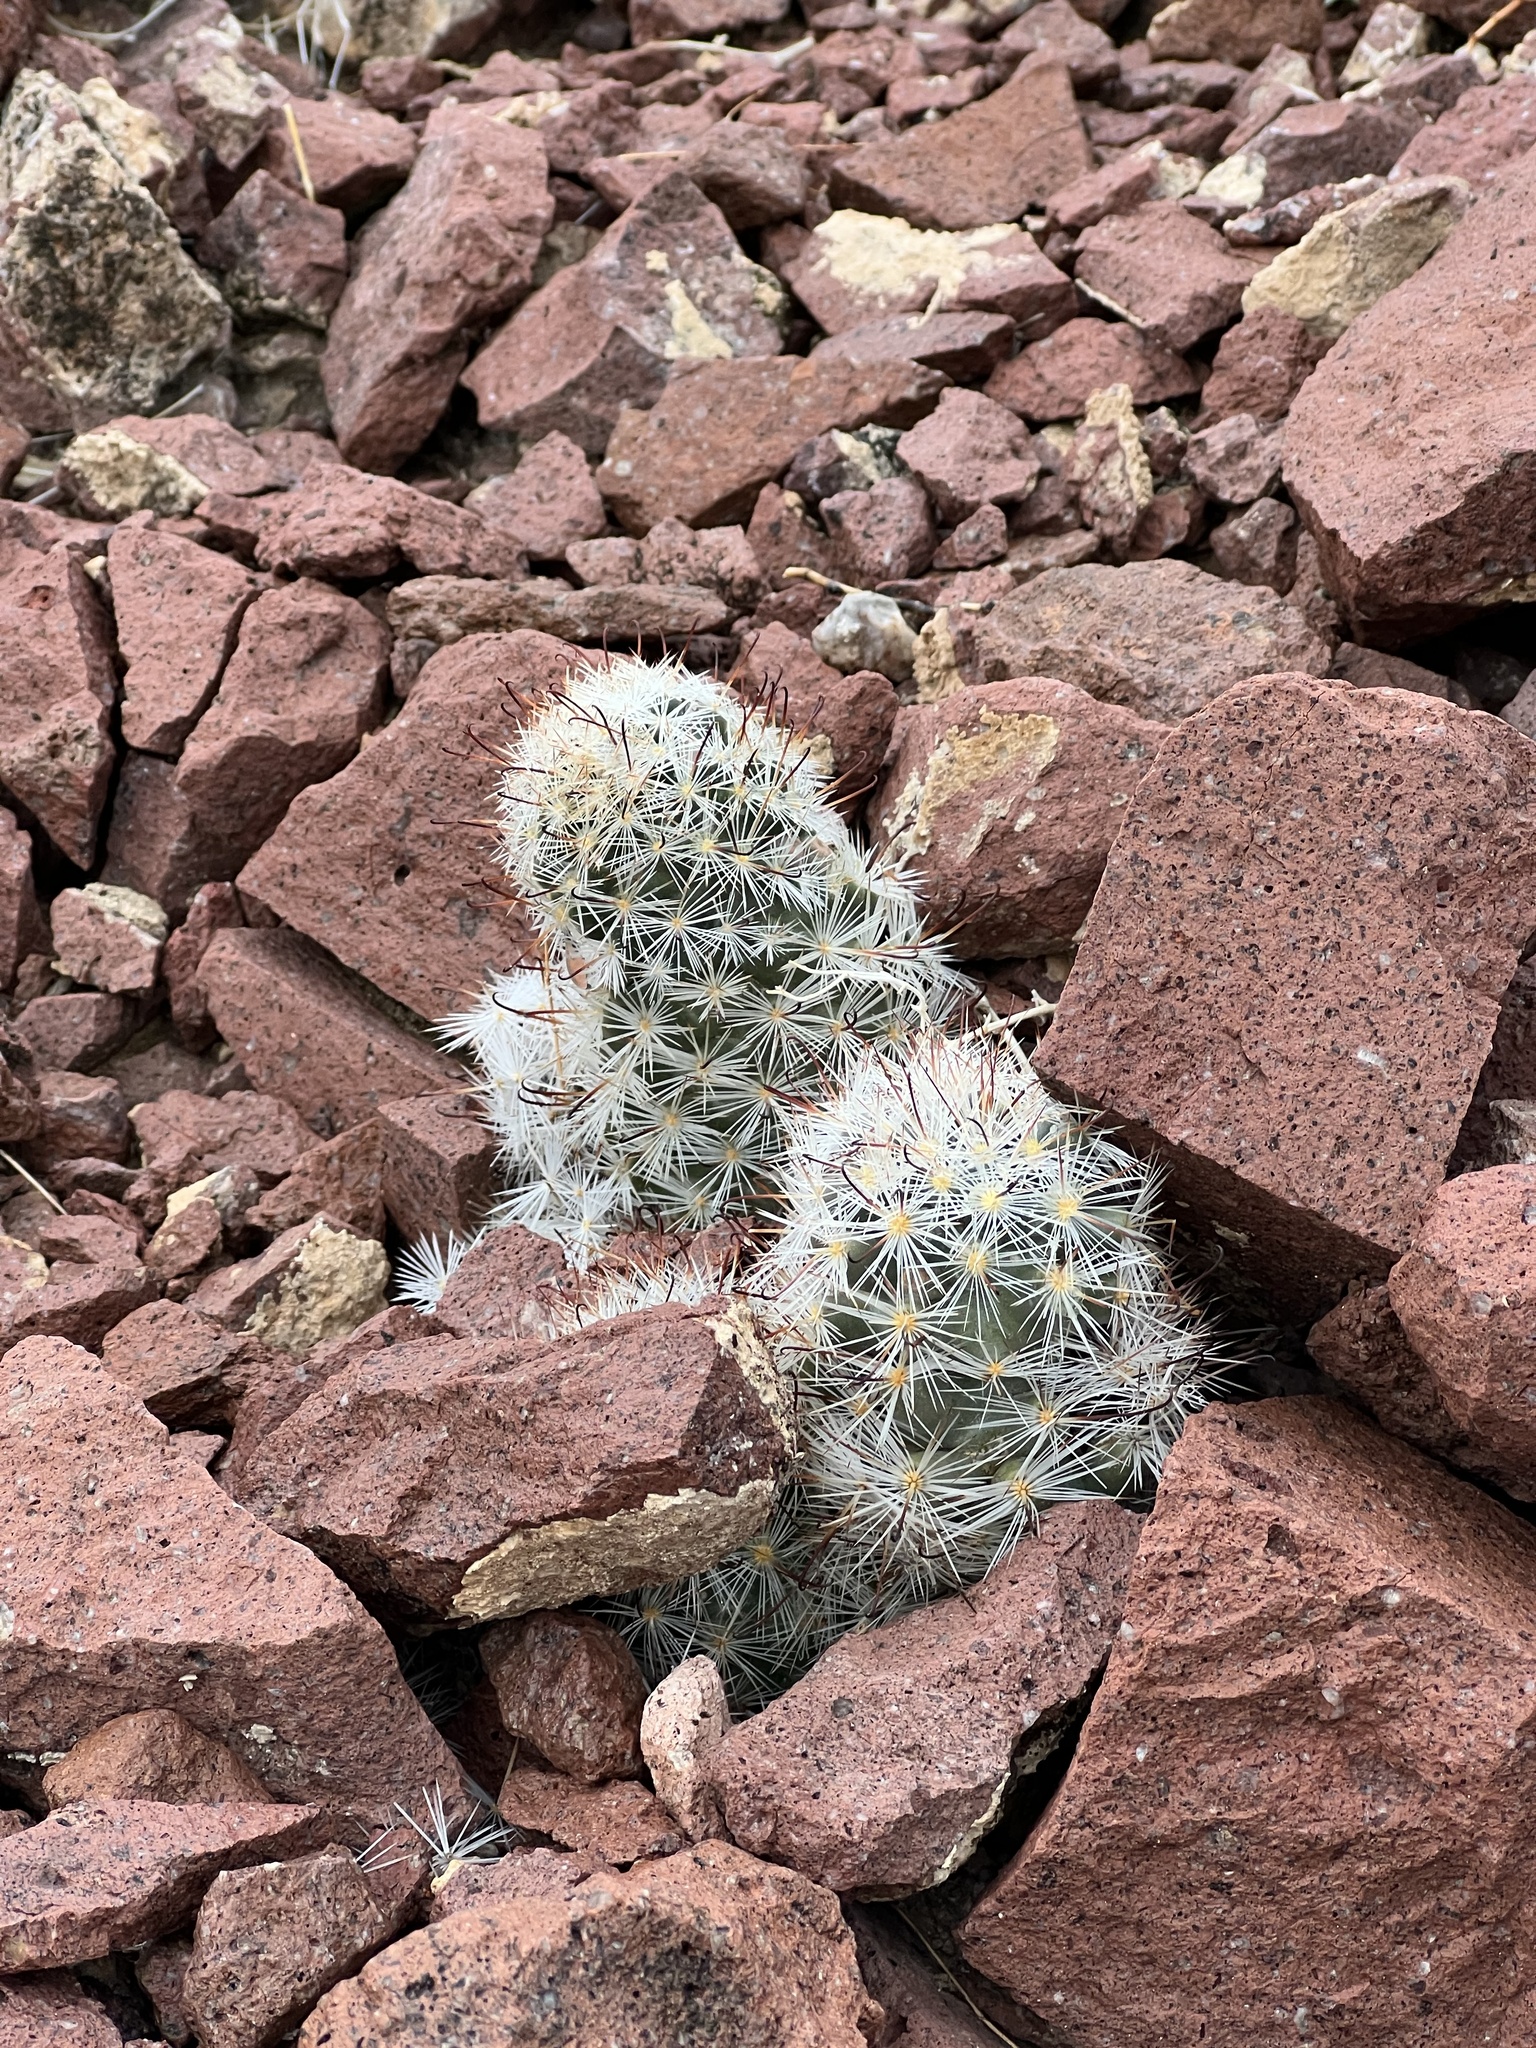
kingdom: Plantae
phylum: Tracheophyta
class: Magnoliopsida
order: Caryophyllales
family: Cactaceae
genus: Cochemiea
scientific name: Cochemiea tetrancistra
